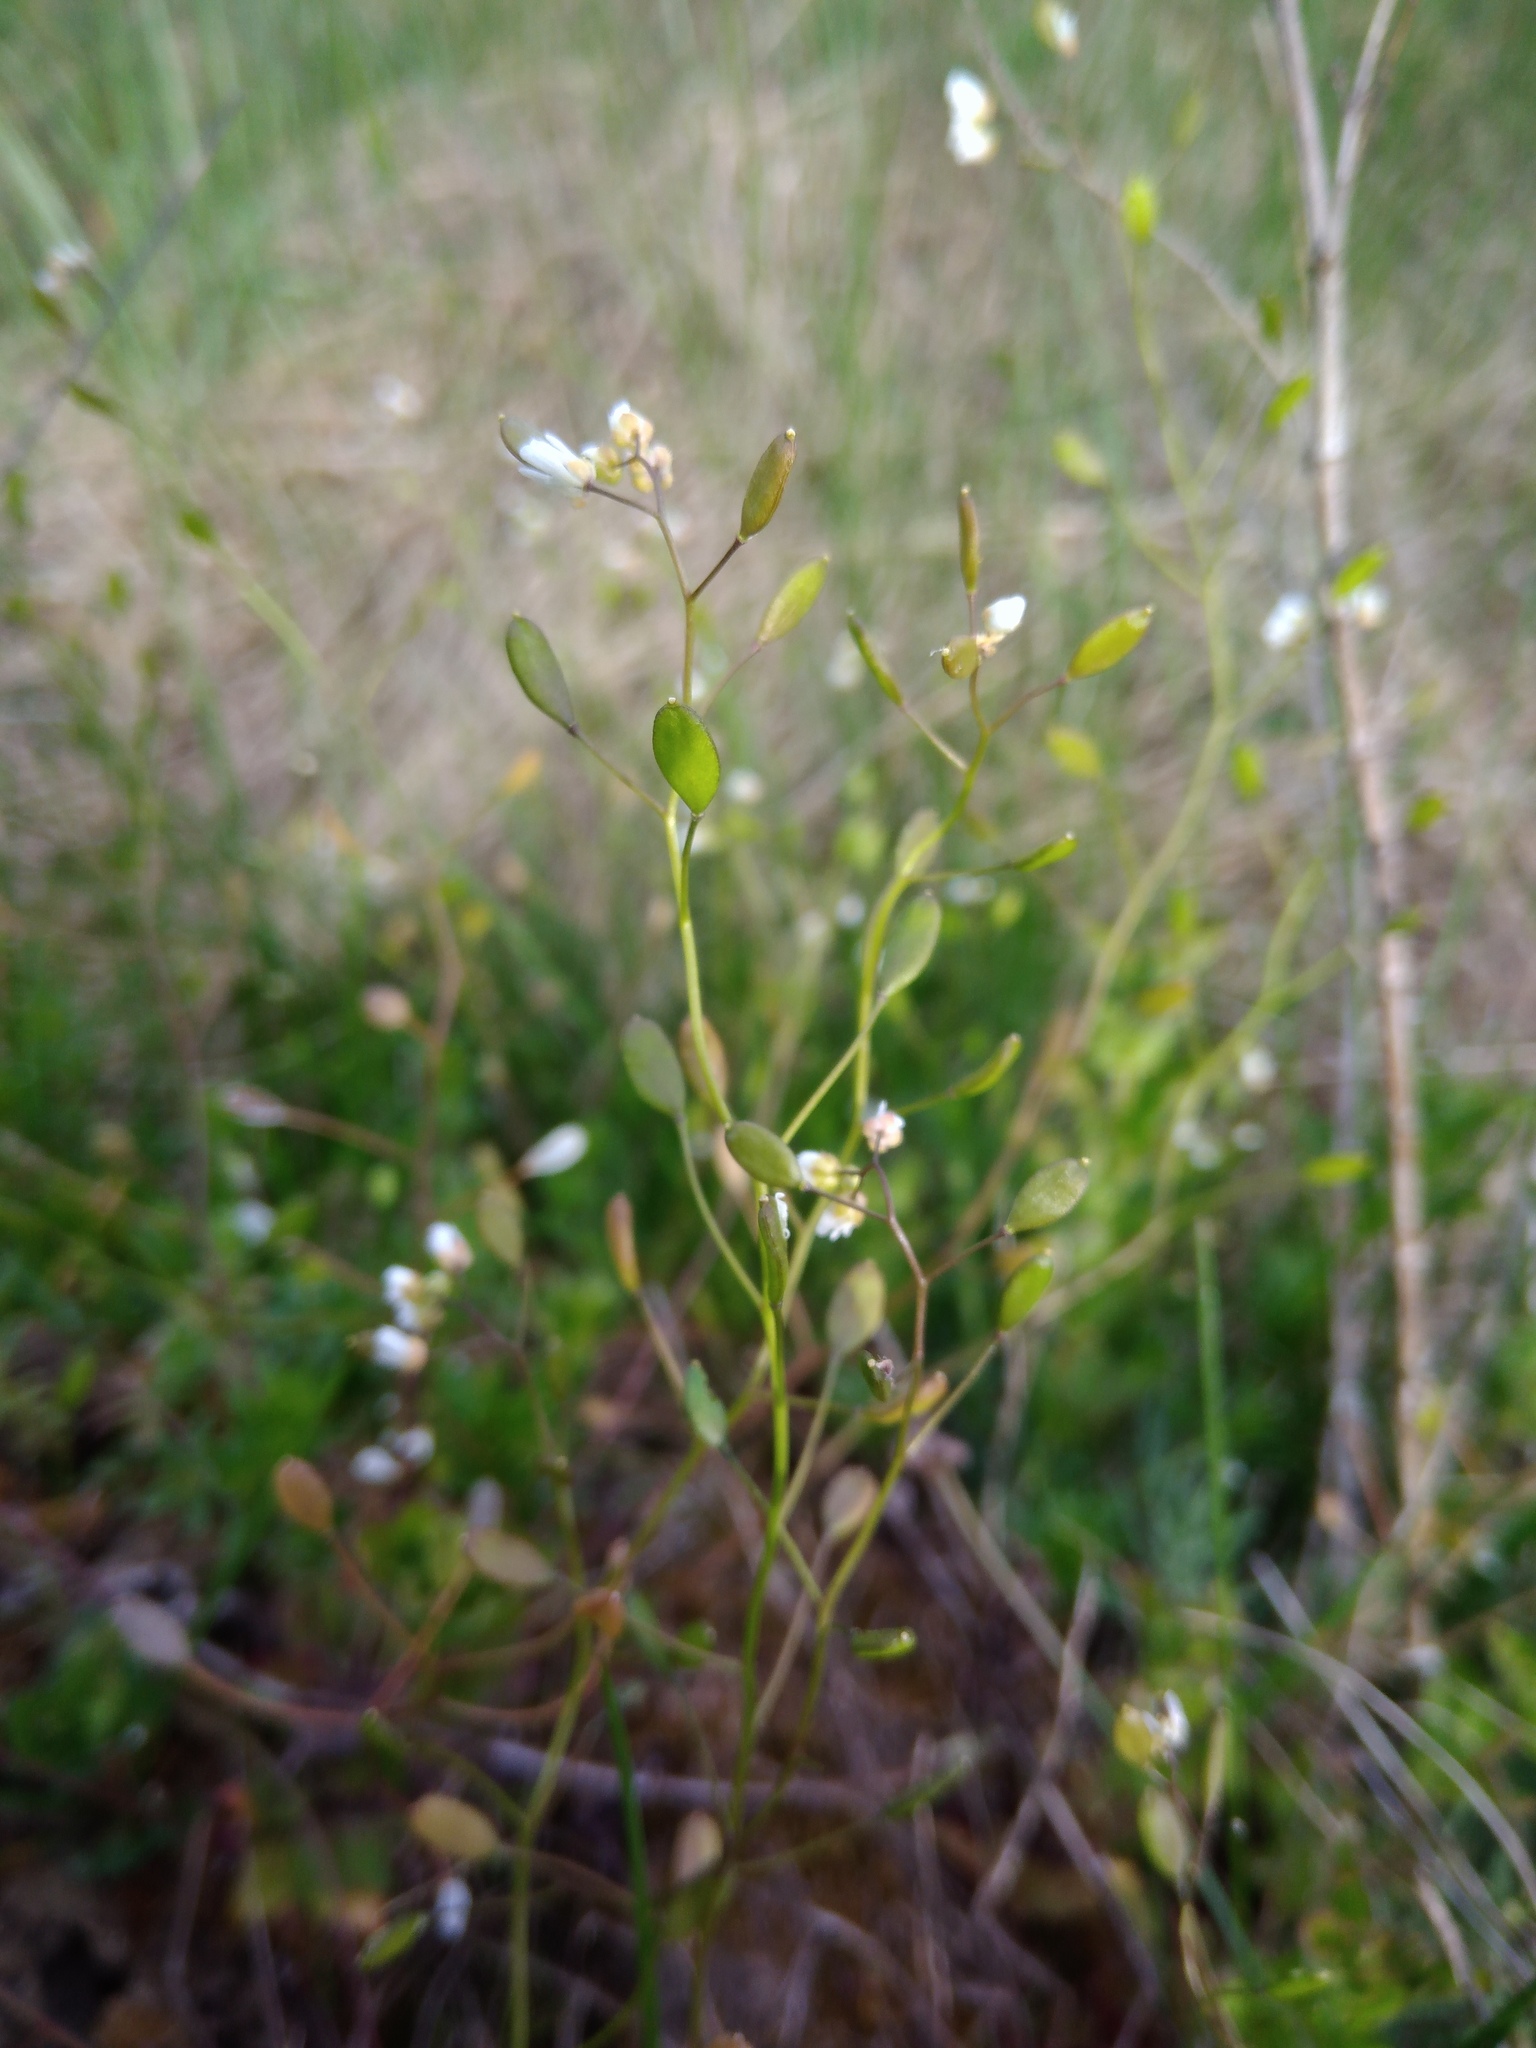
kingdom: Plantae
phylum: Tracheophyta
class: Magnoliopsida
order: Brassicales
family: Brassicaceae
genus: Draba
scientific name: Draba verna
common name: Spring draba
